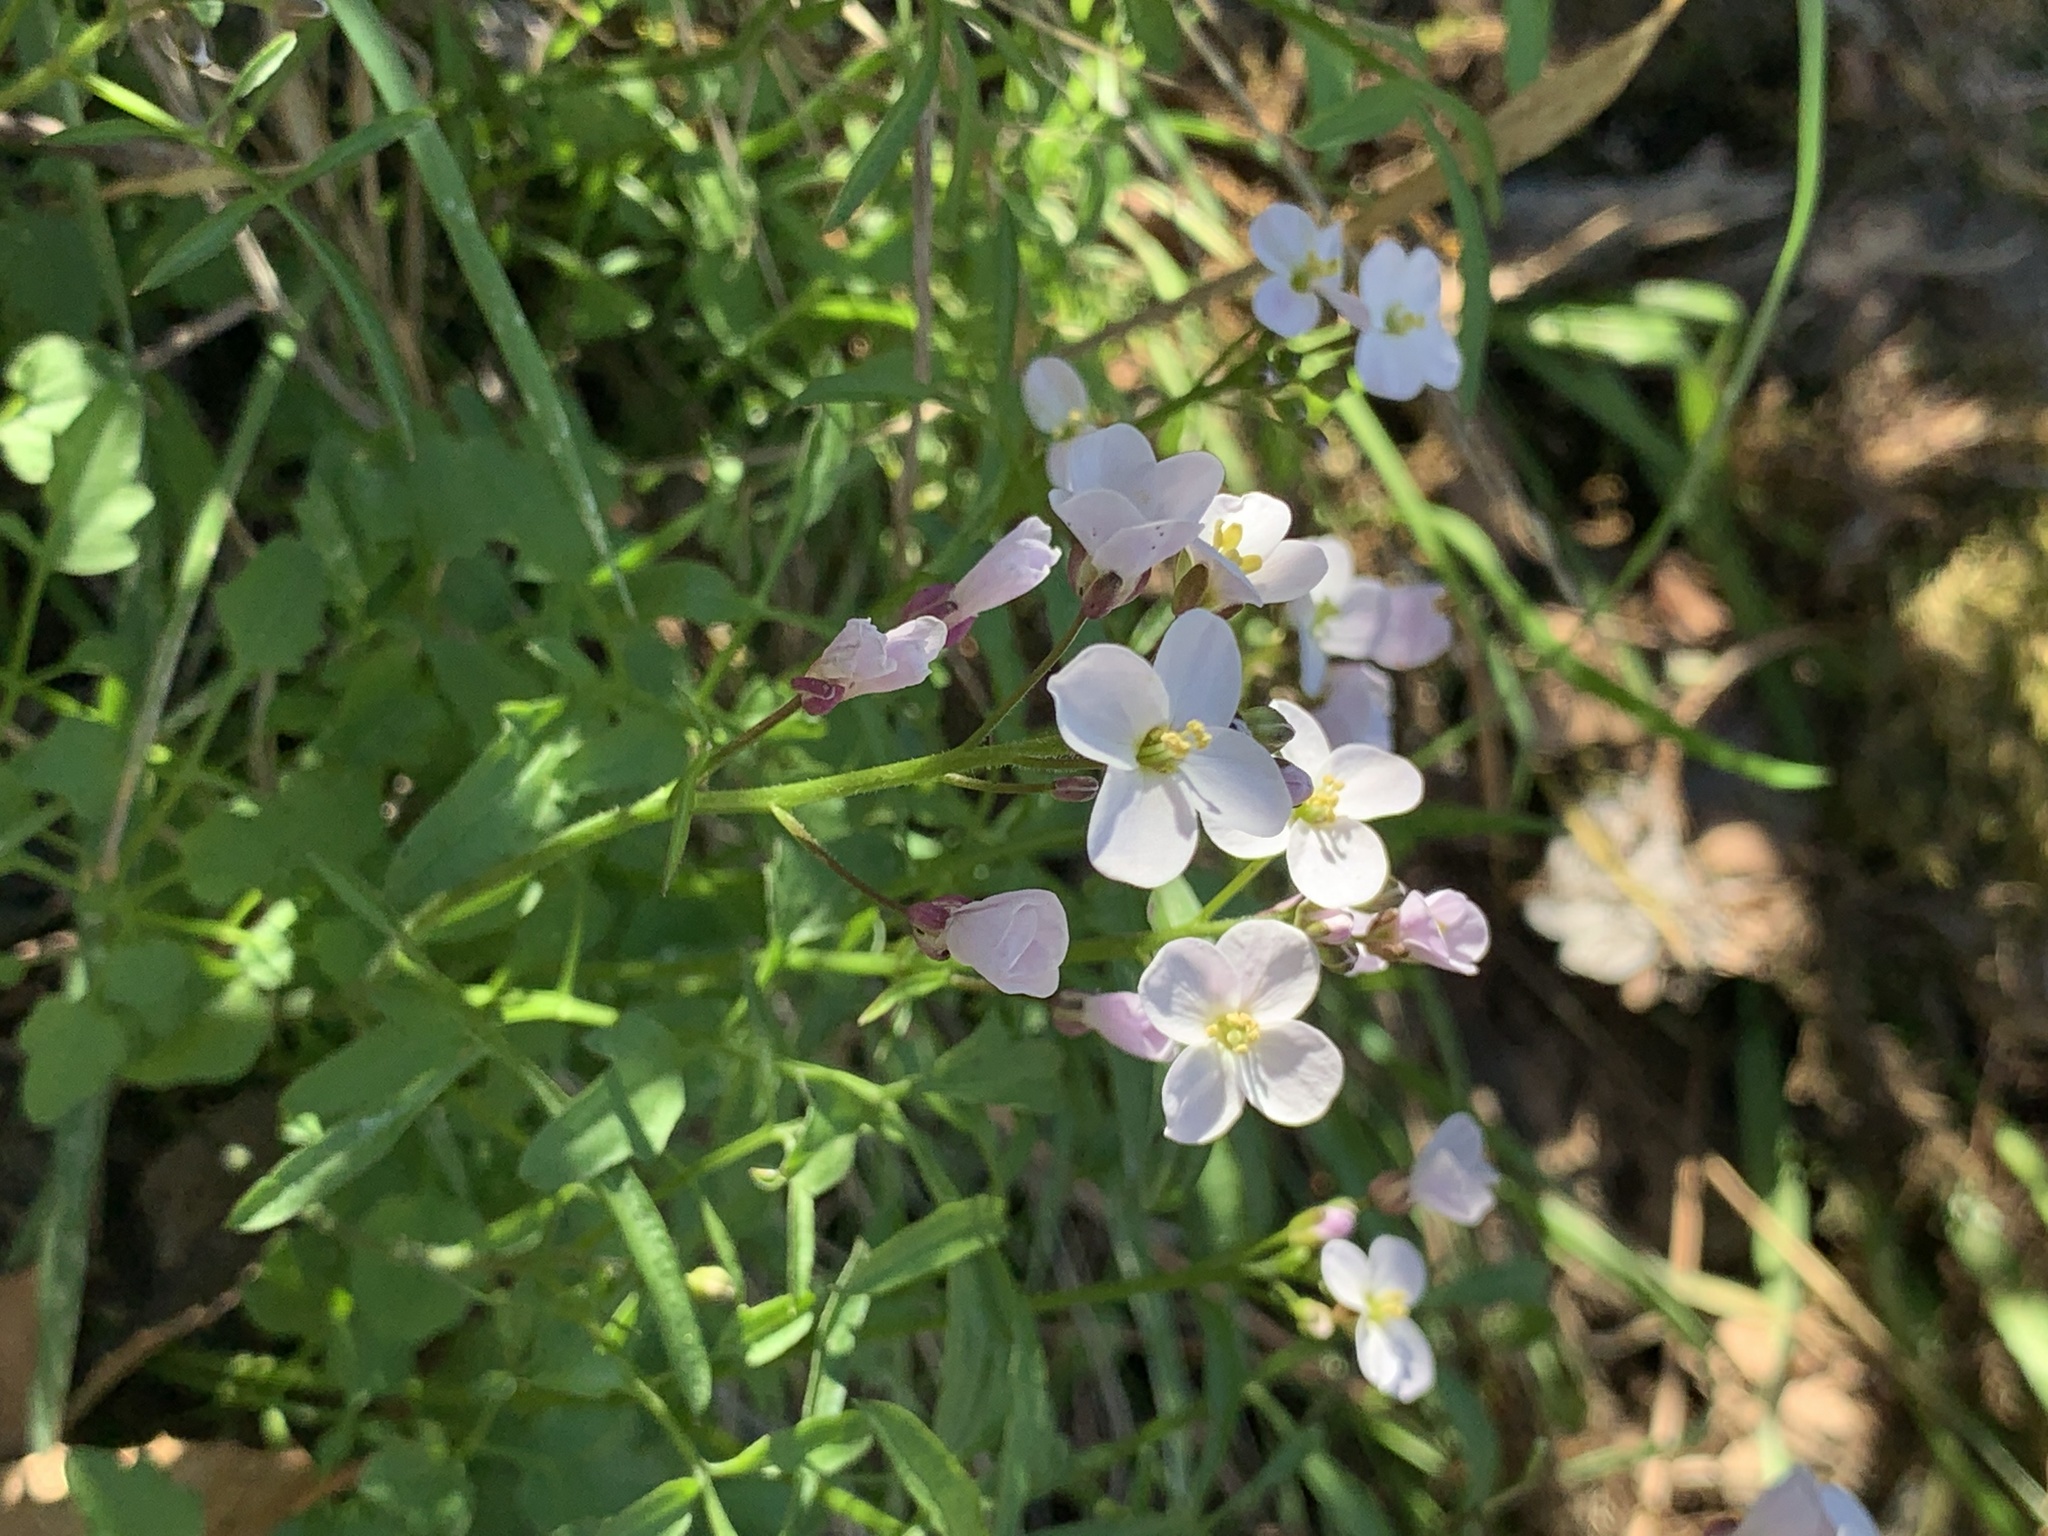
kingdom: Plantae
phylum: Tracheophyta
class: Magnoliopsida
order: Brassicales
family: Brassicaceae
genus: Cardamine
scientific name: Cardamine californica
